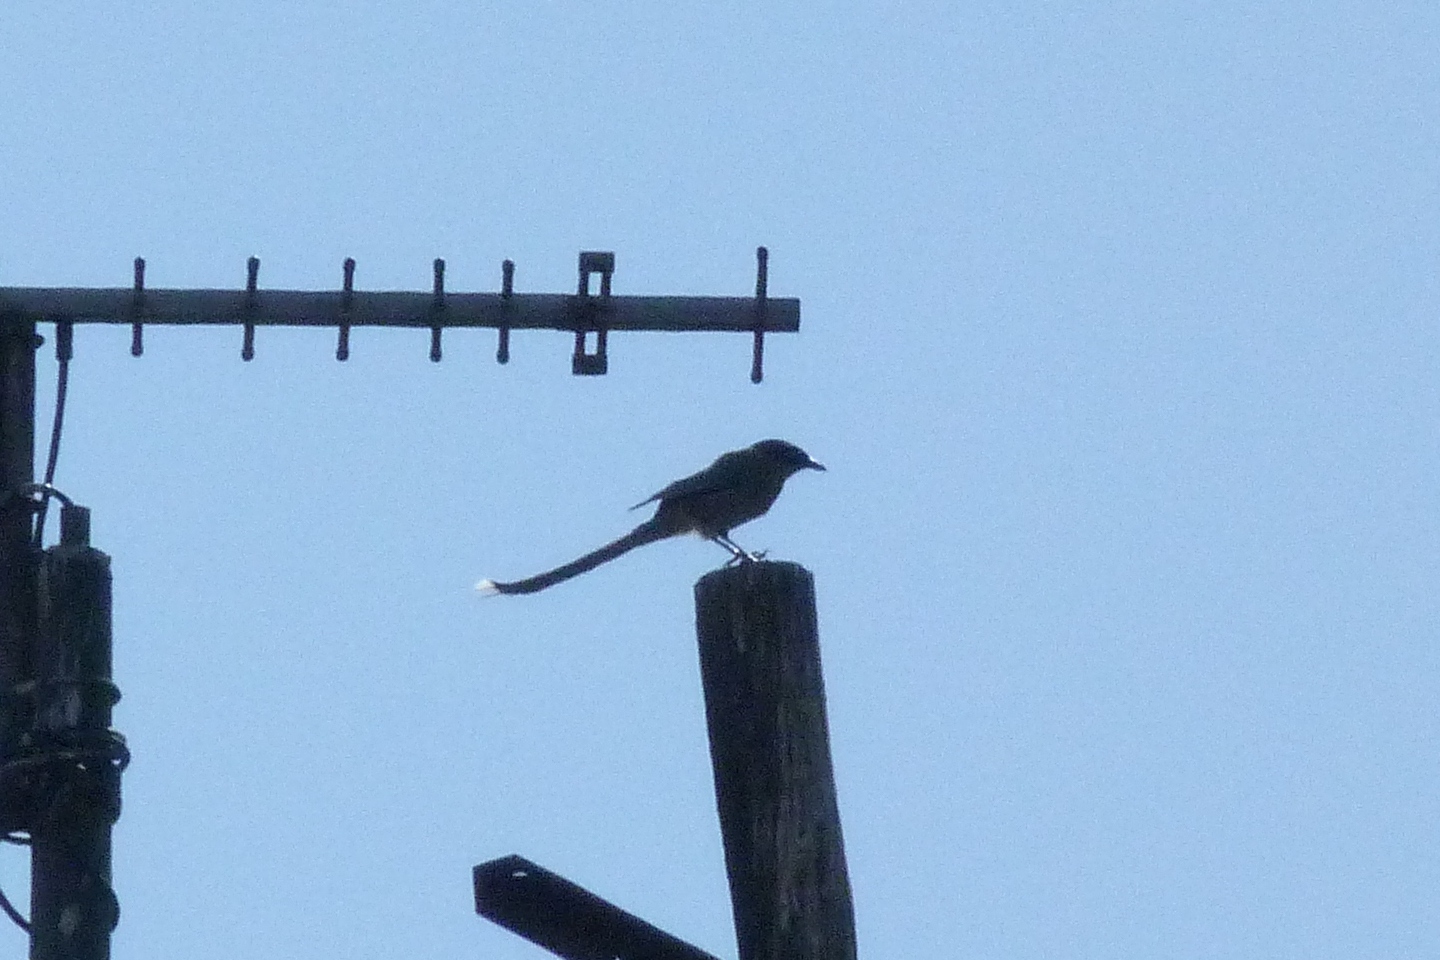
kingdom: Animalia
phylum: Chordata
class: Aves
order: Passeriformes
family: Corvidae
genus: Cyanopica
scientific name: Cyanopica cyanus
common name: Azure-winged magpie
